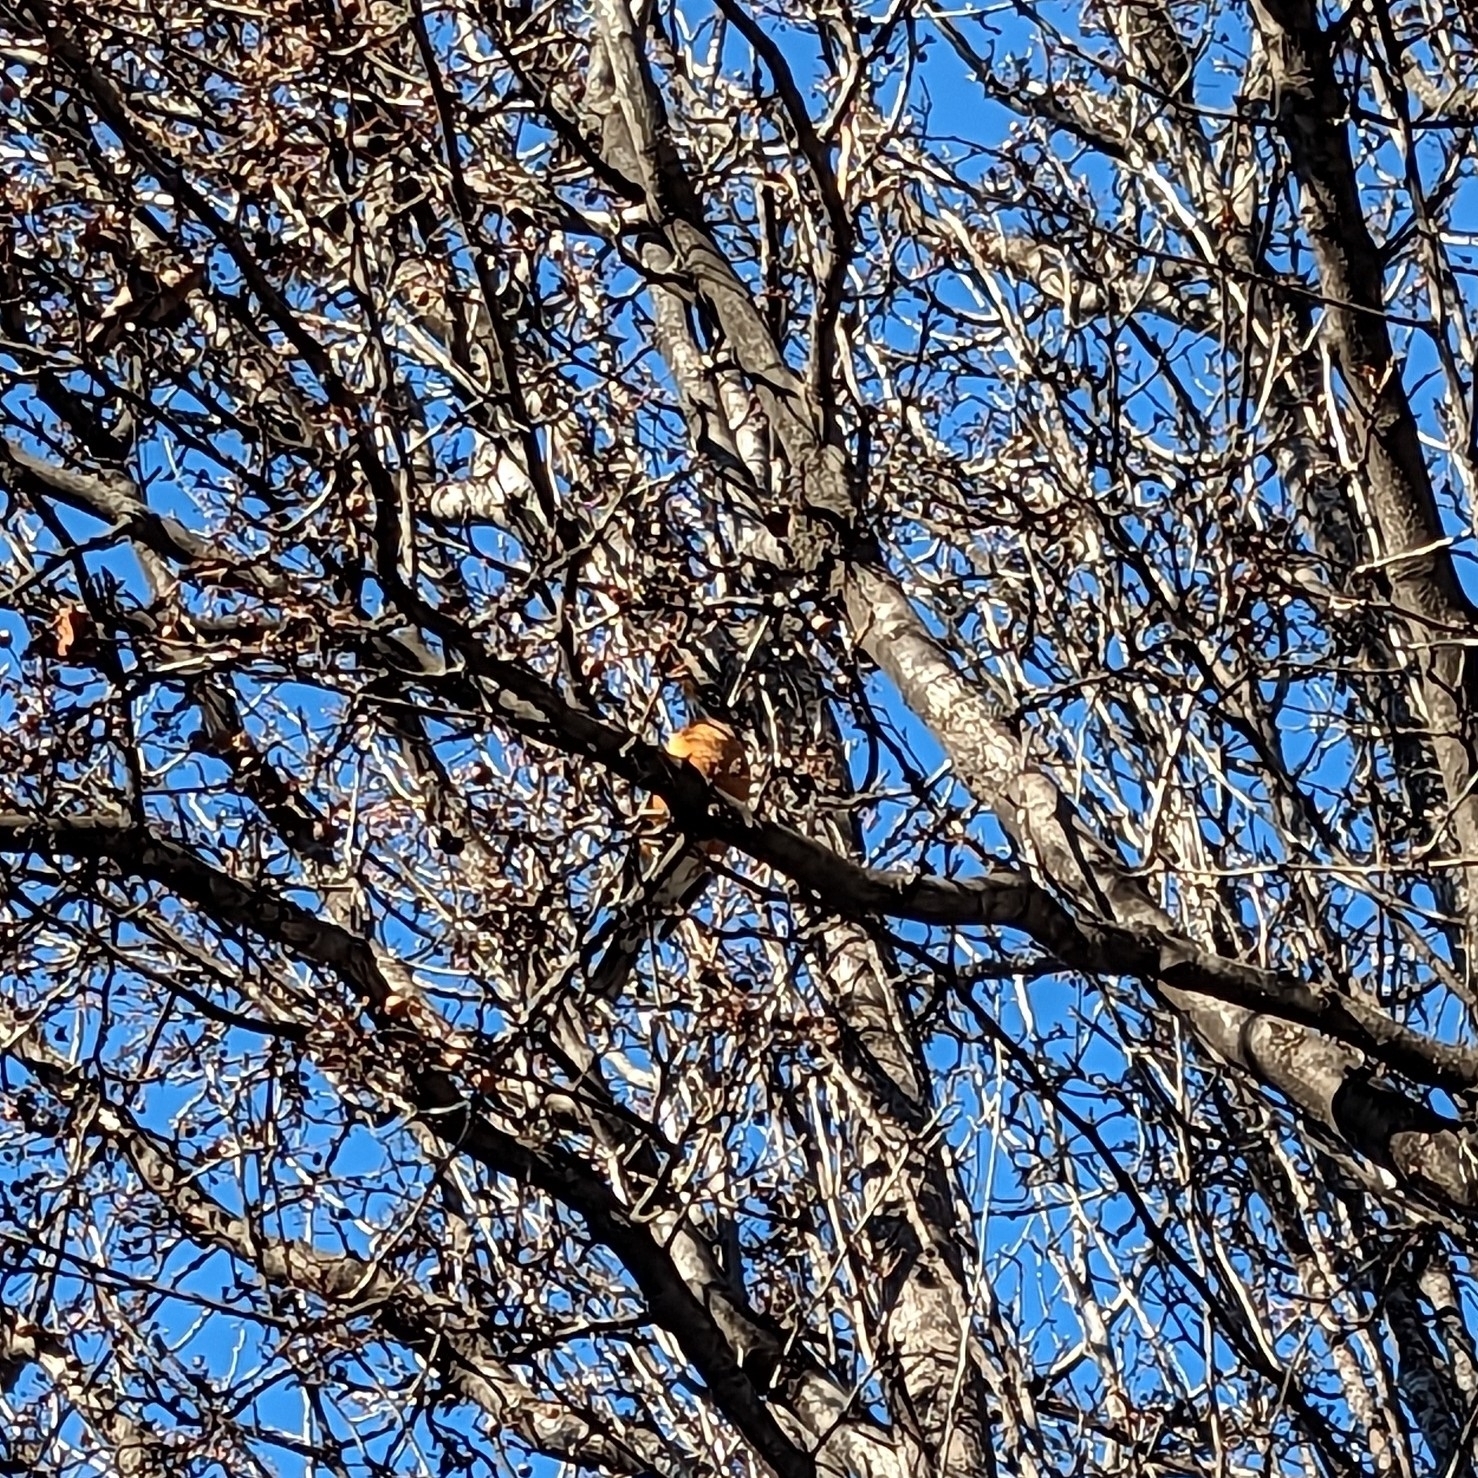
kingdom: Animalia
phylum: Chordata
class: Aves
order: Passeriformes
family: Turdidae
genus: Turdus
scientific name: Turdus migratorius
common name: American robin
